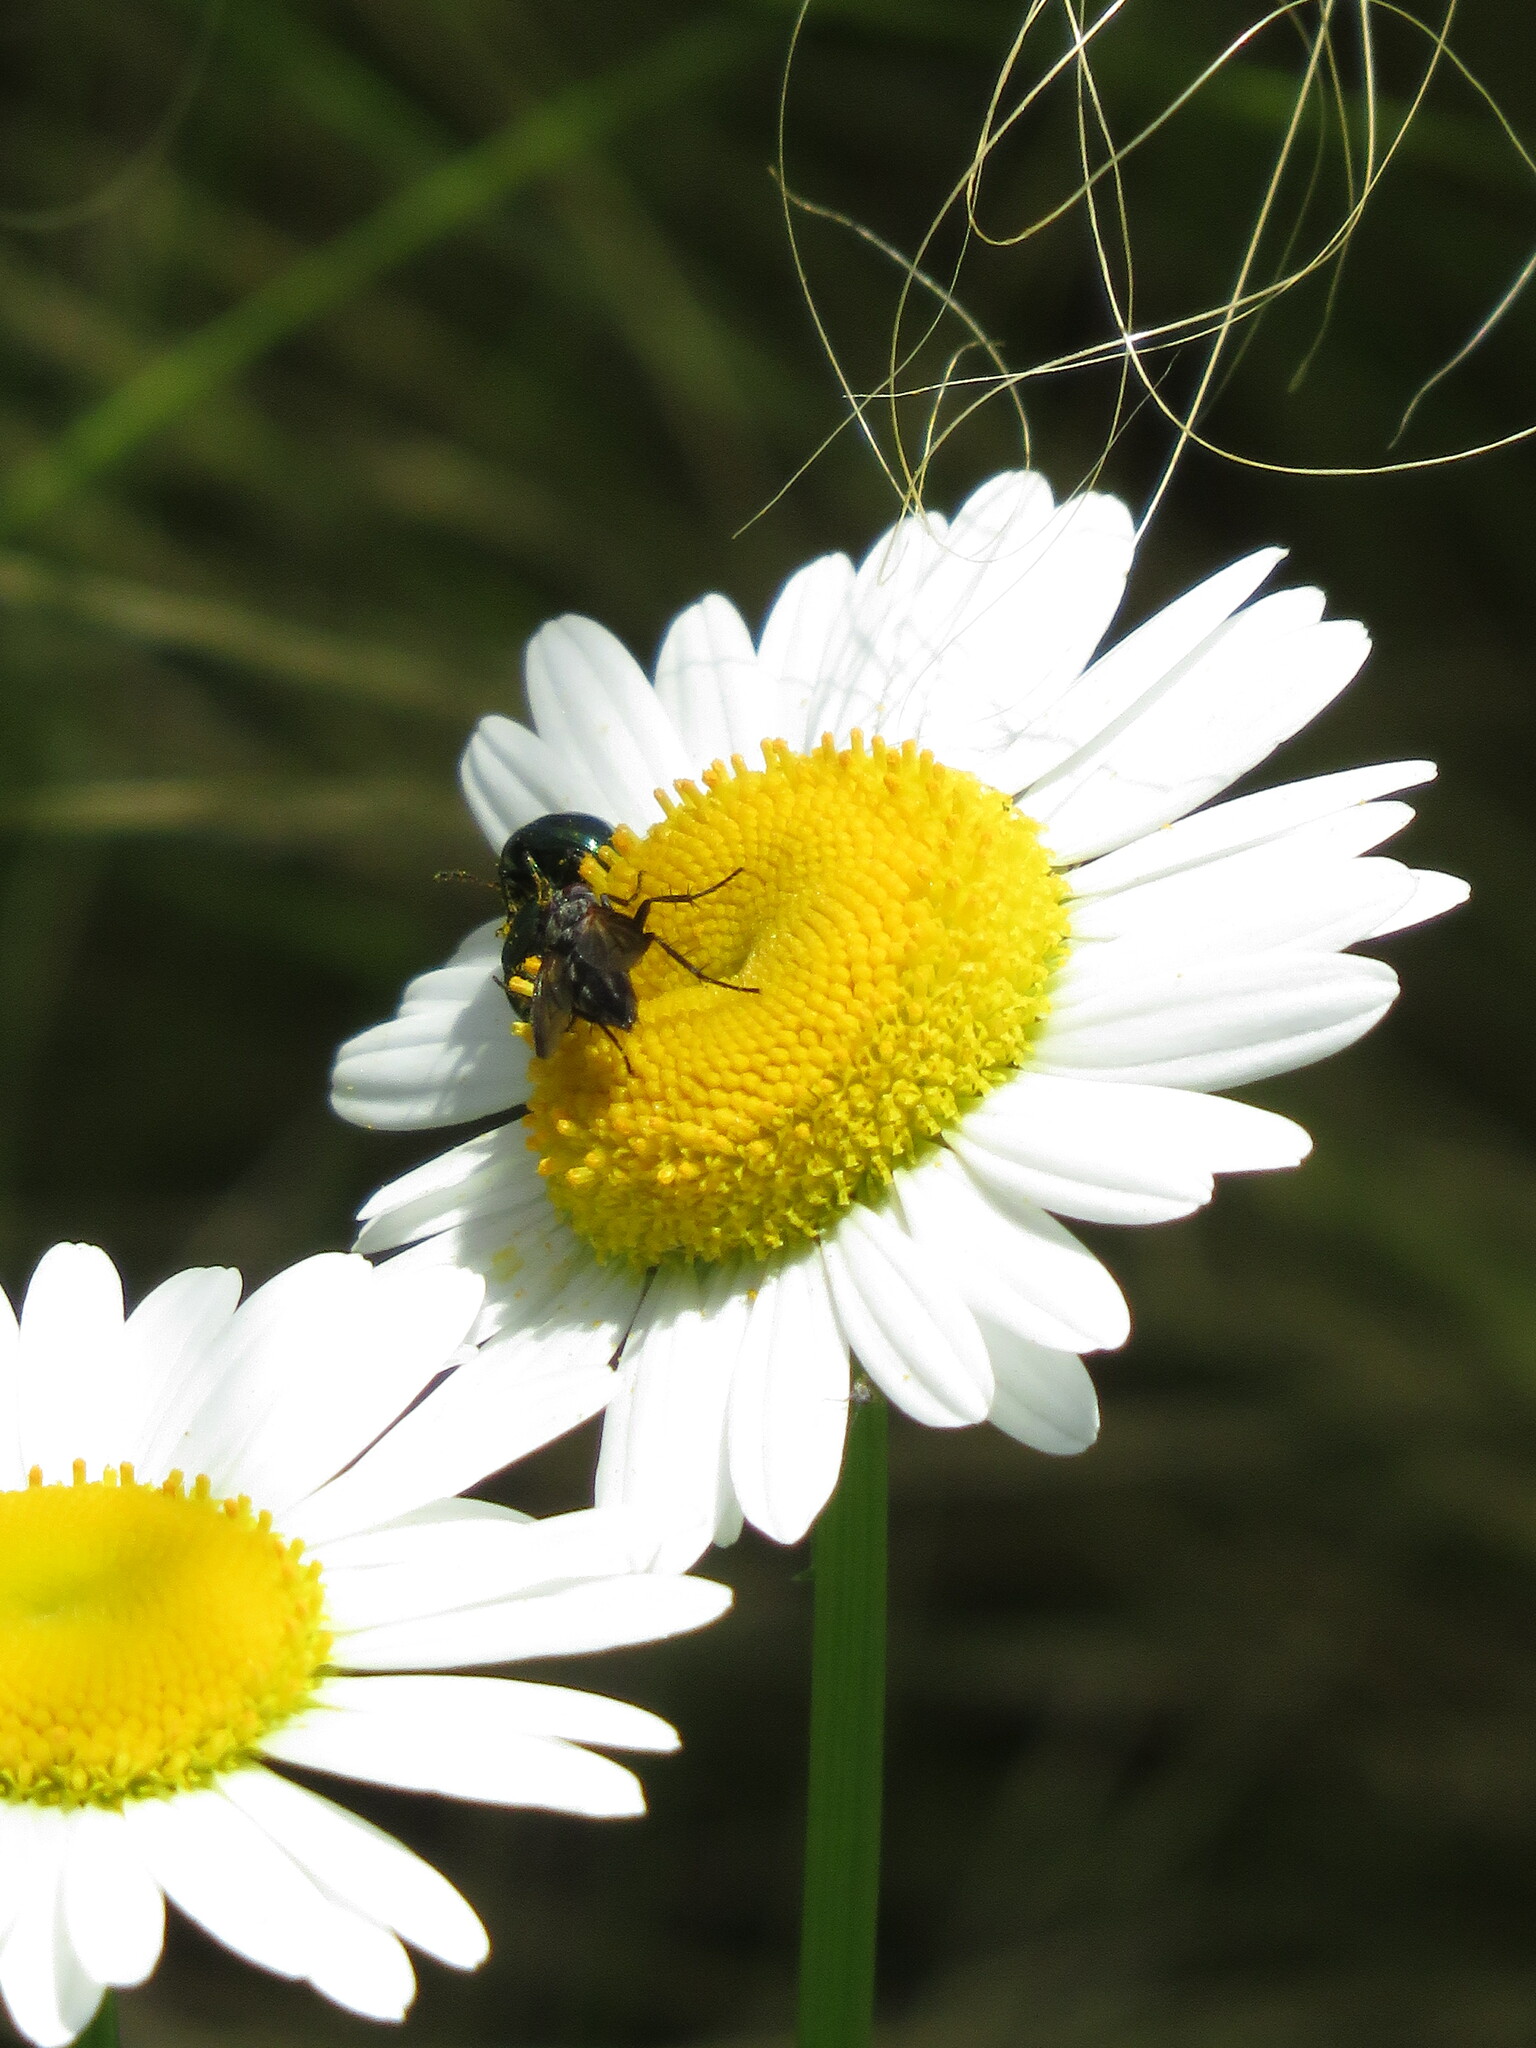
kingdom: Plantae
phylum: Tracheophyta
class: Magnoliopsida
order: Asterales
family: Asteraceae
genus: Leucanthemum
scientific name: Leucanthemum vulgare
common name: Oxeye daisy
